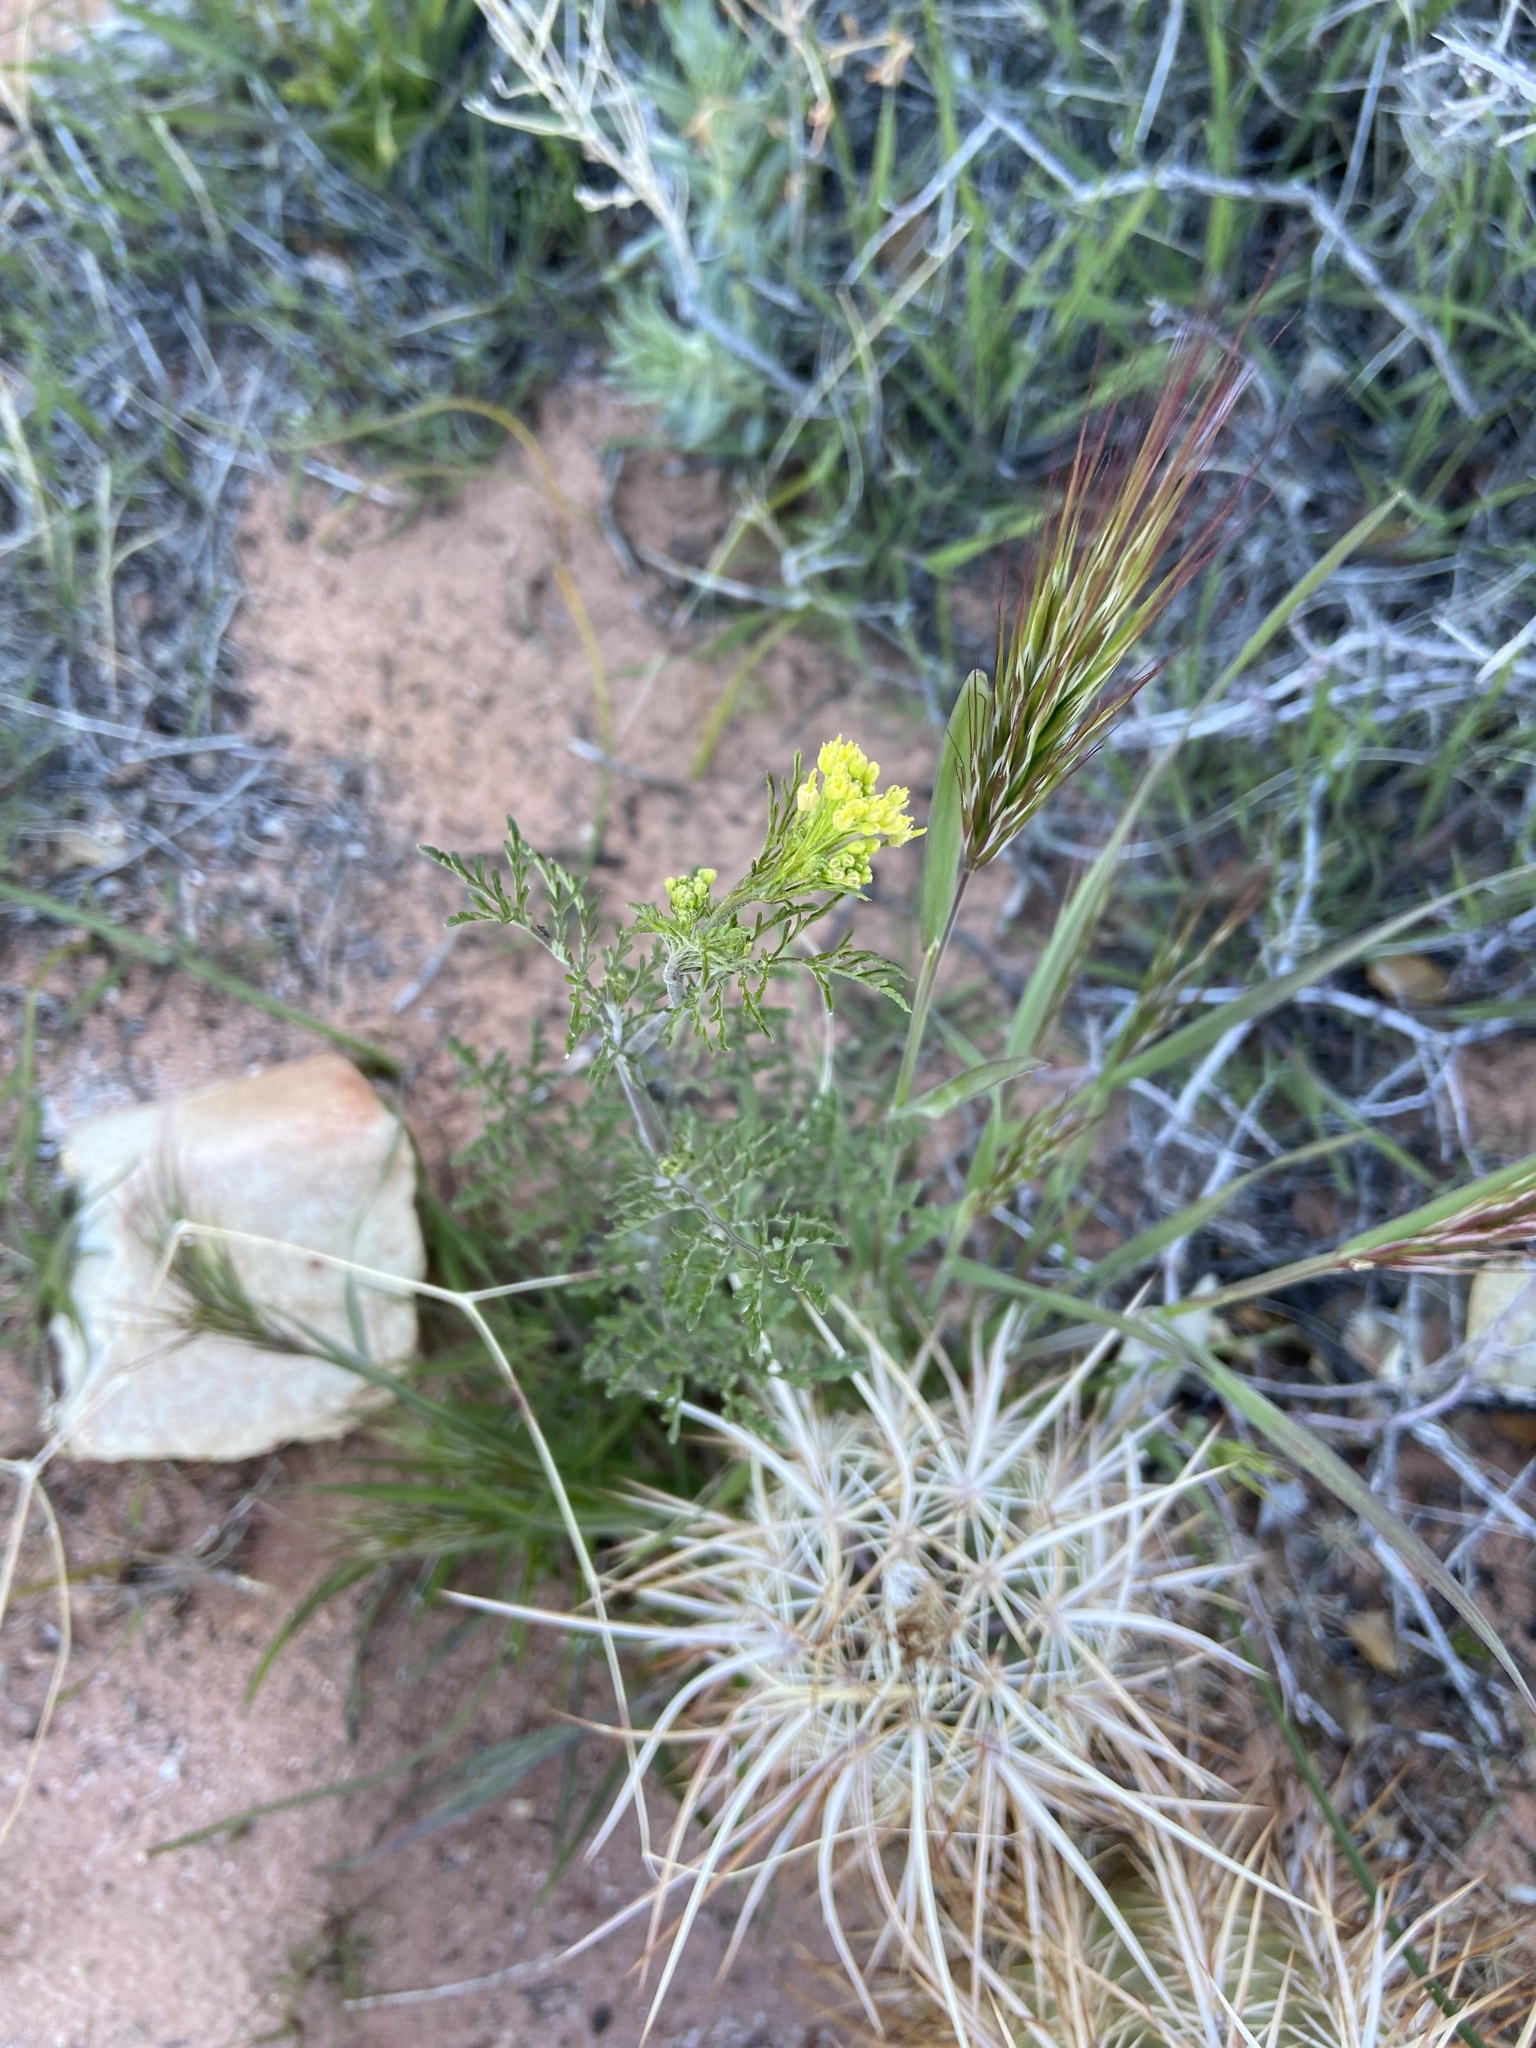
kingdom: Plantae
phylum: Tracheophyta
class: Magnoliopsida
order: Brassicales
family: Brassicaceae
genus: Descurainia
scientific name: Descurainia pinnata
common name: Western tansy mustard
